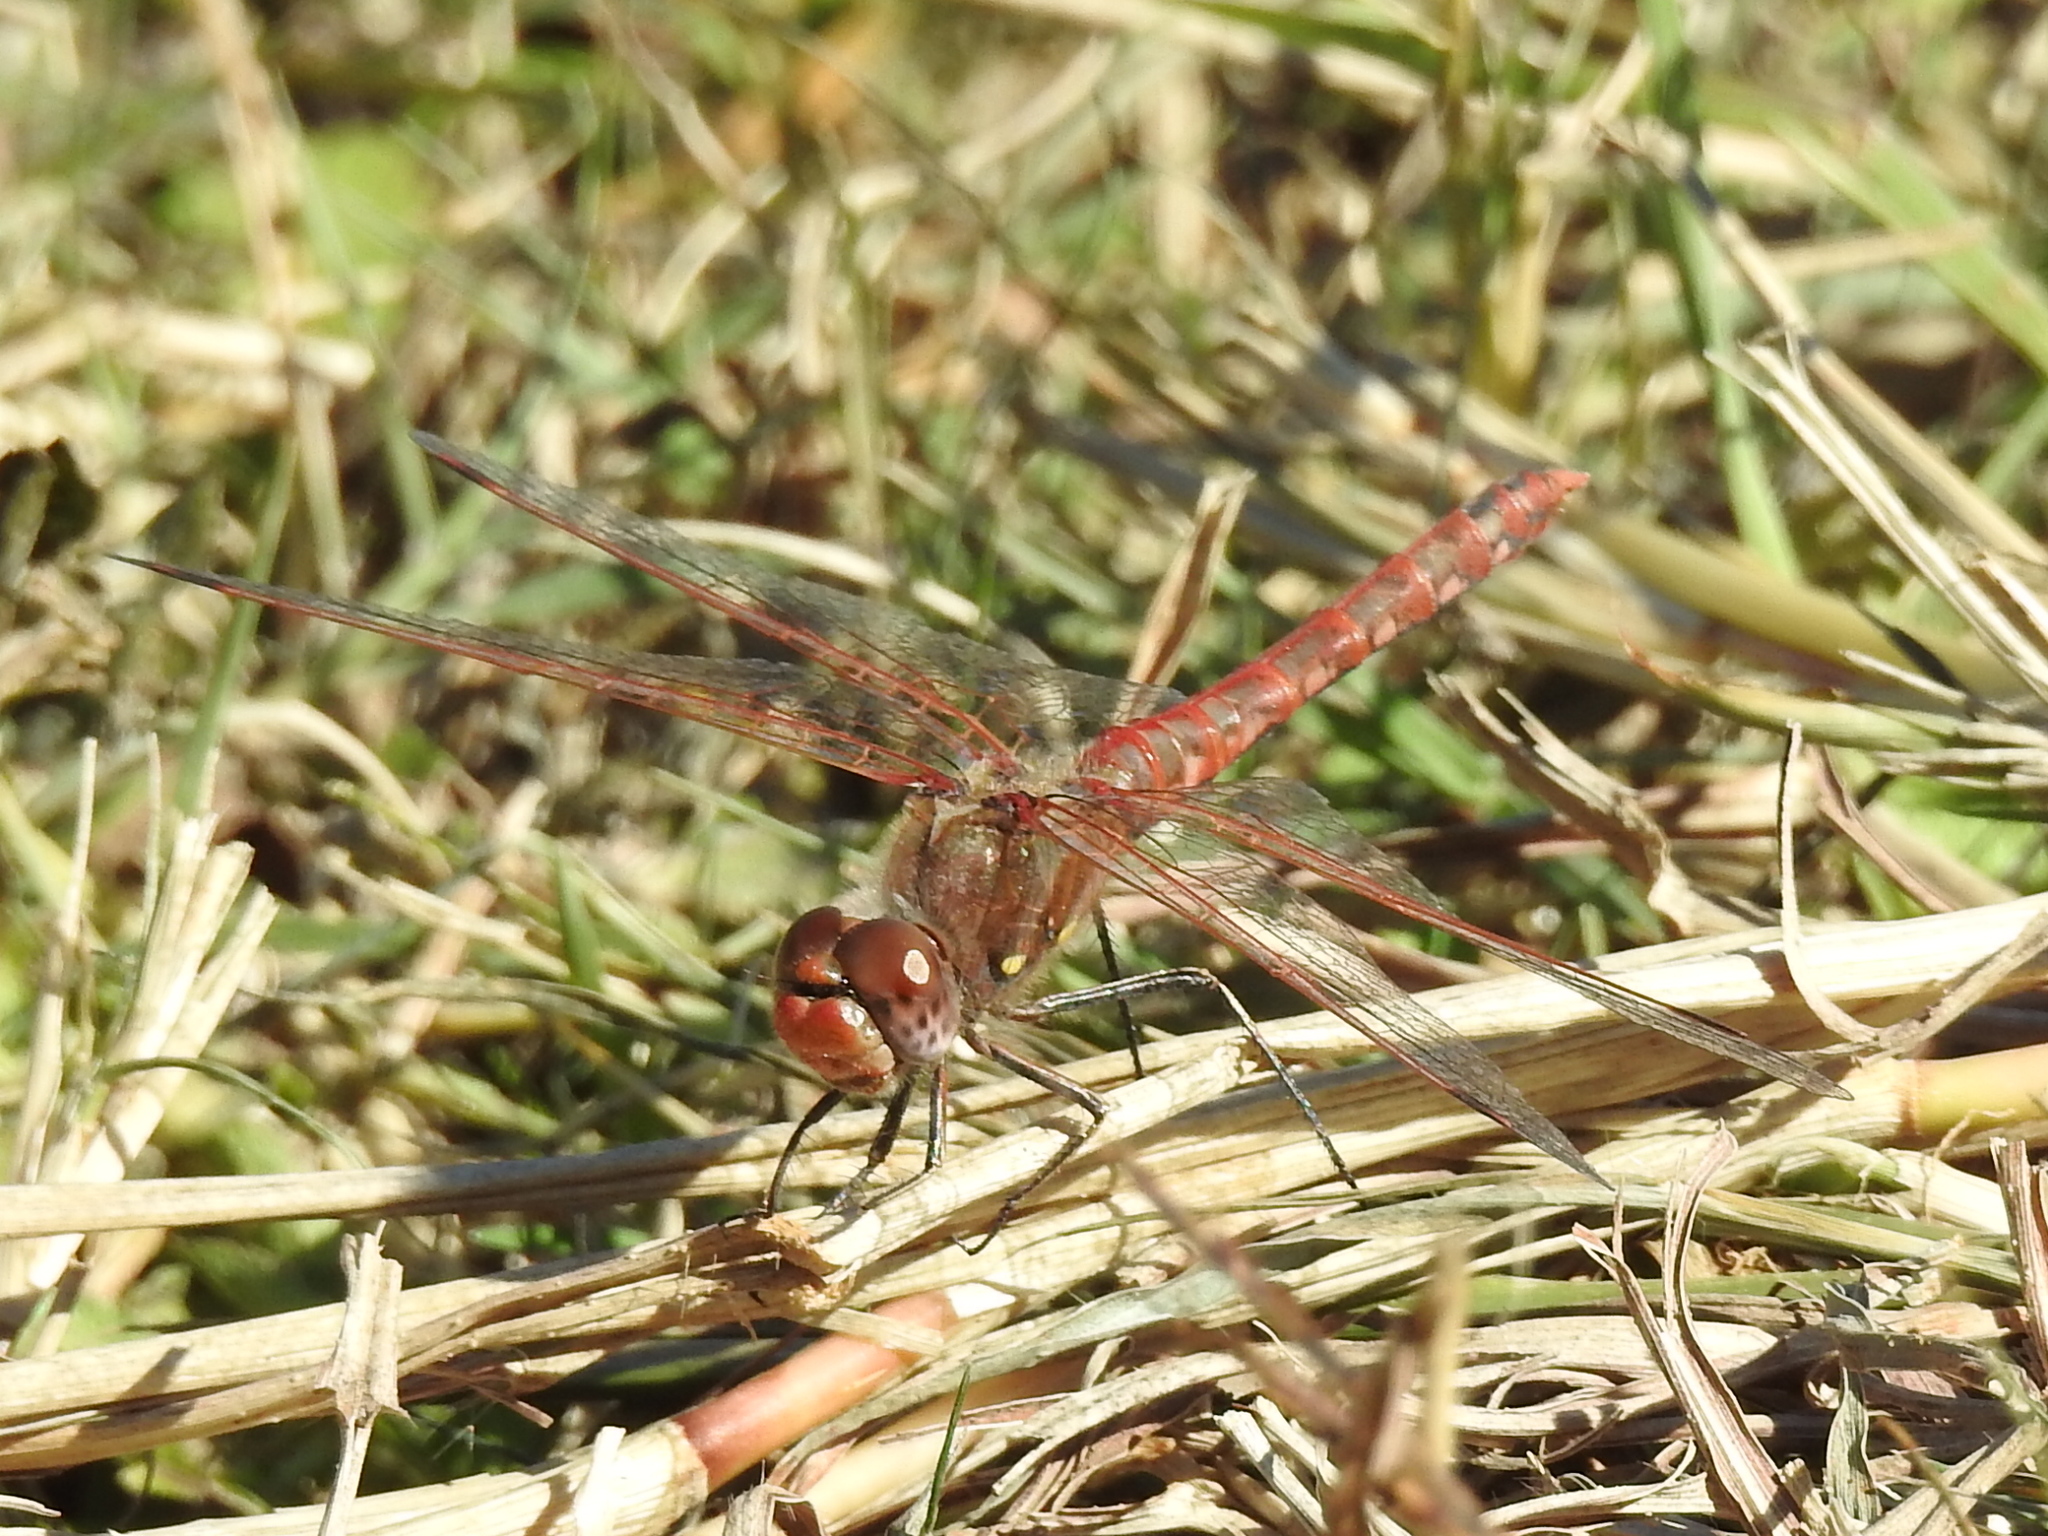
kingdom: Animalia
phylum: Arthropoda
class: Insecta
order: Odonata
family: Libellulidae
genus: Sympetrum
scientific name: Sympetrum corruptum
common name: Variegated meadowhawk
